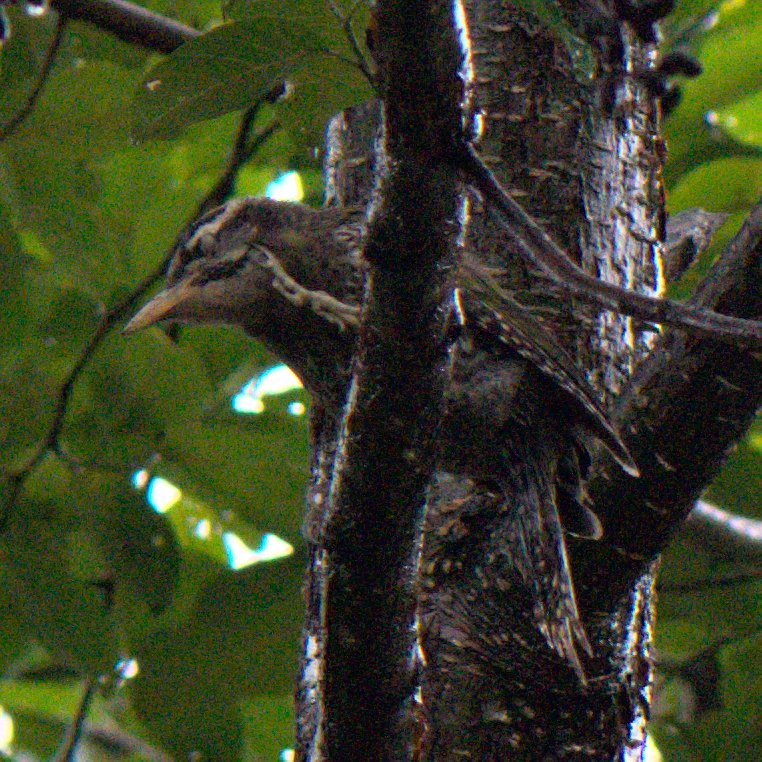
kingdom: Animalia
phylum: Chordata
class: Aves
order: Piciformes
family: Picidae
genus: Picus
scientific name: Picus squamatus
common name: Scaly-bellied woodpecker
